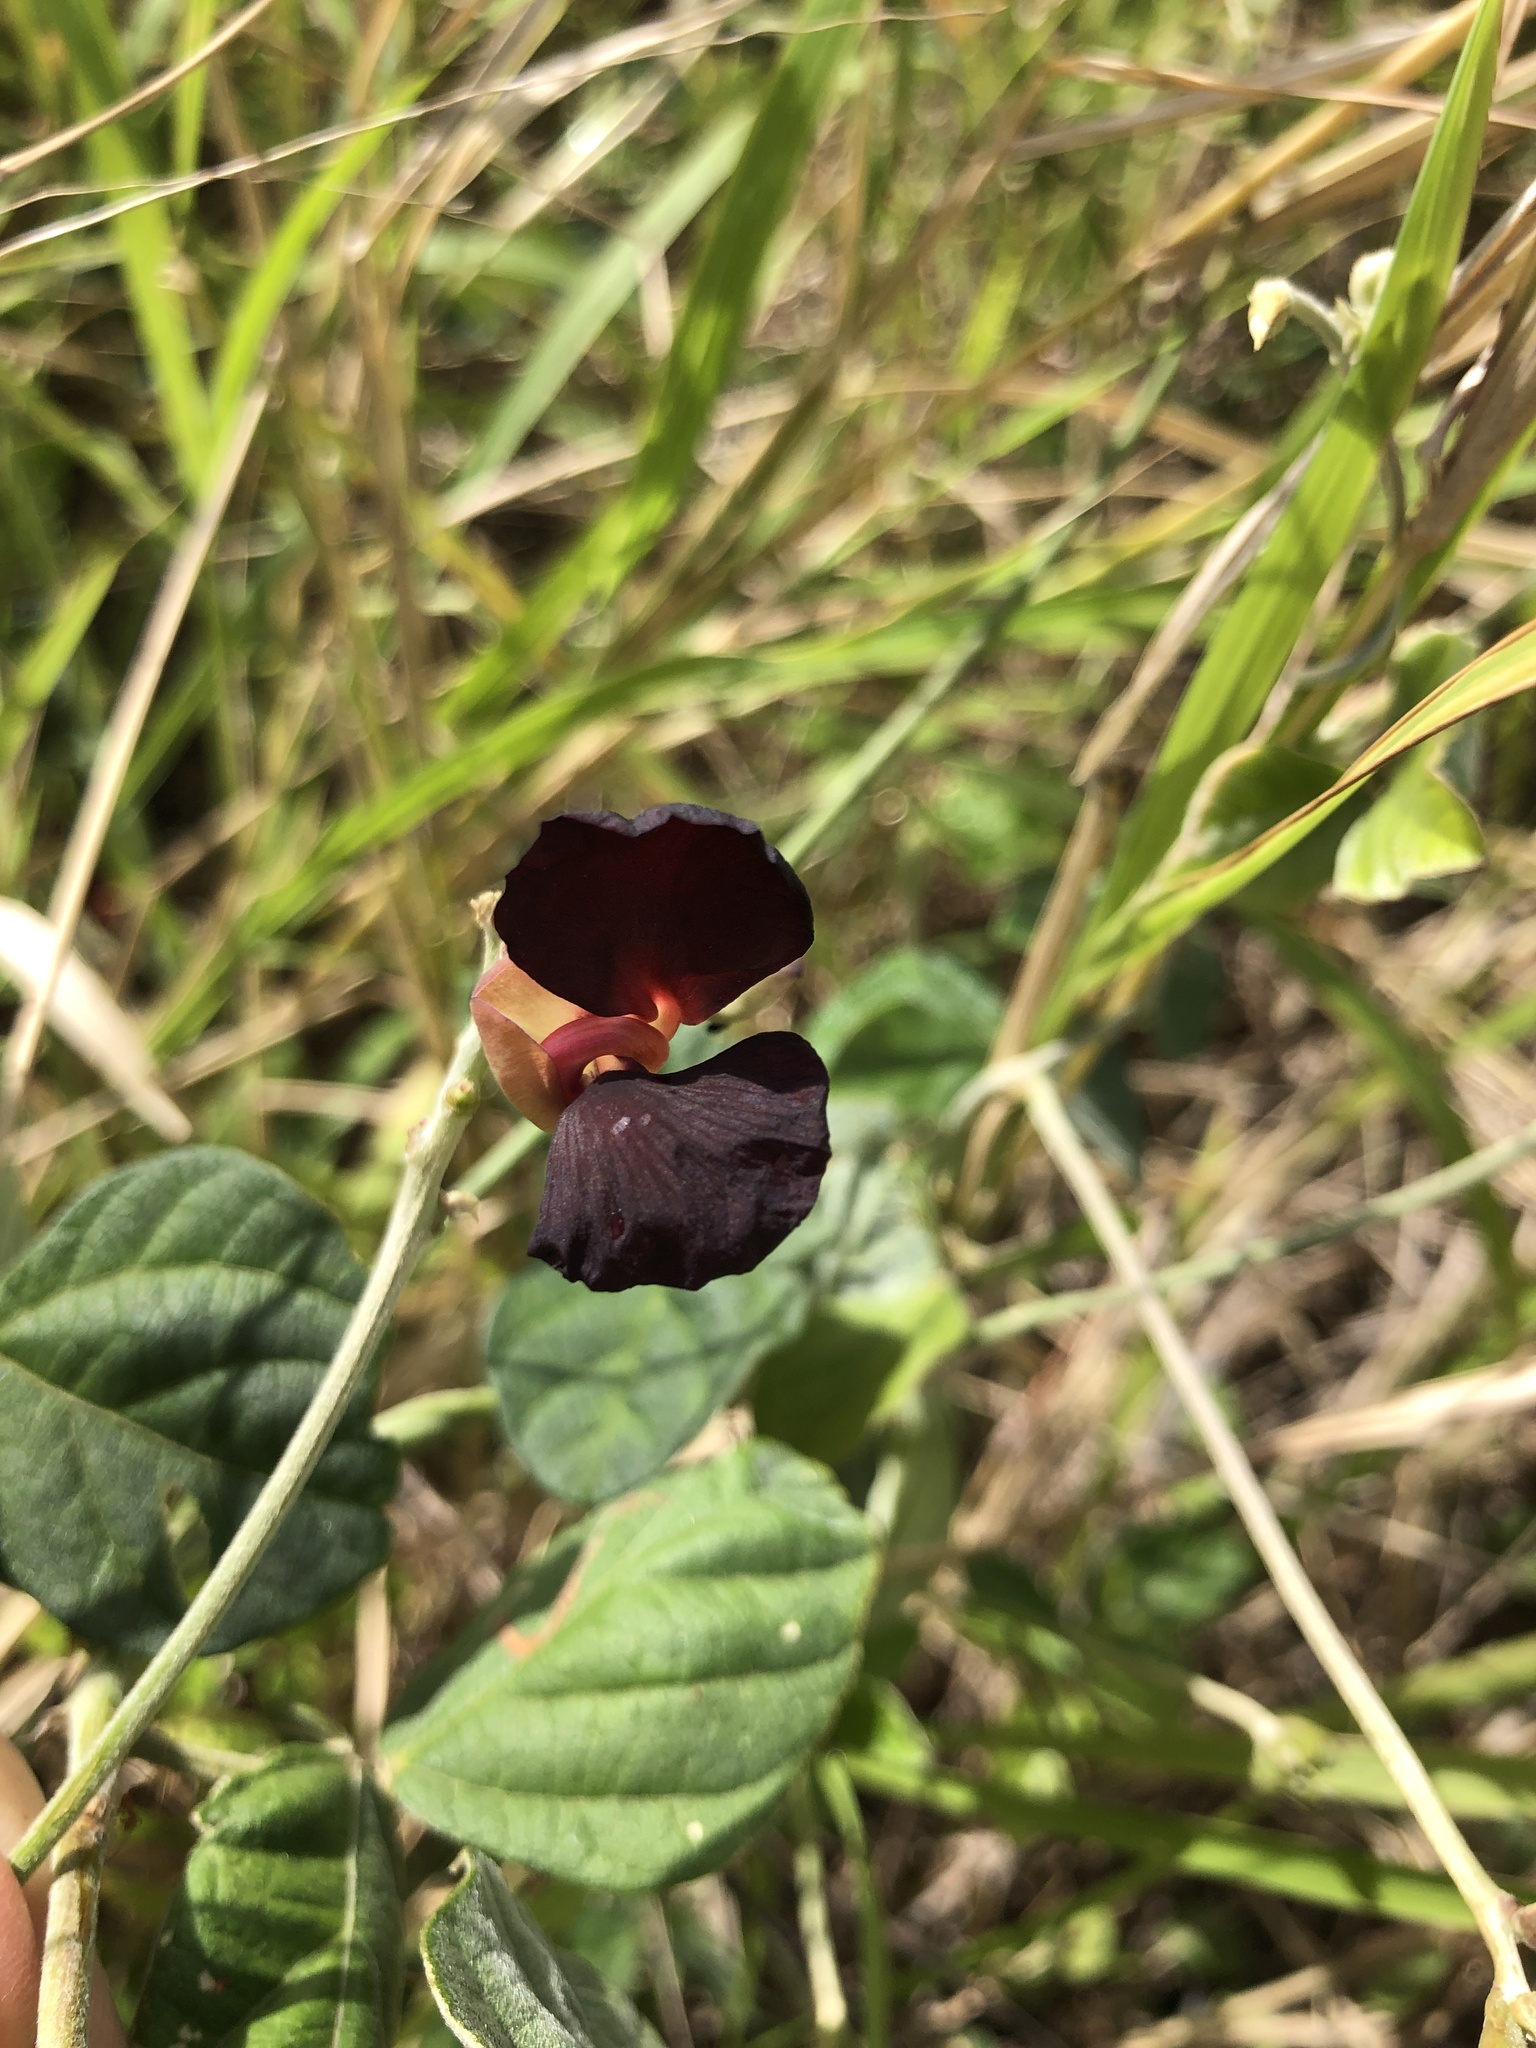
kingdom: Plantae
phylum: Tracheophyta
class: Magnoliopsida
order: Fabales
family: Fabaceae
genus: Macroptilium
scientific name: Macroptilium atropurpureum
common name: Purple bushbean
